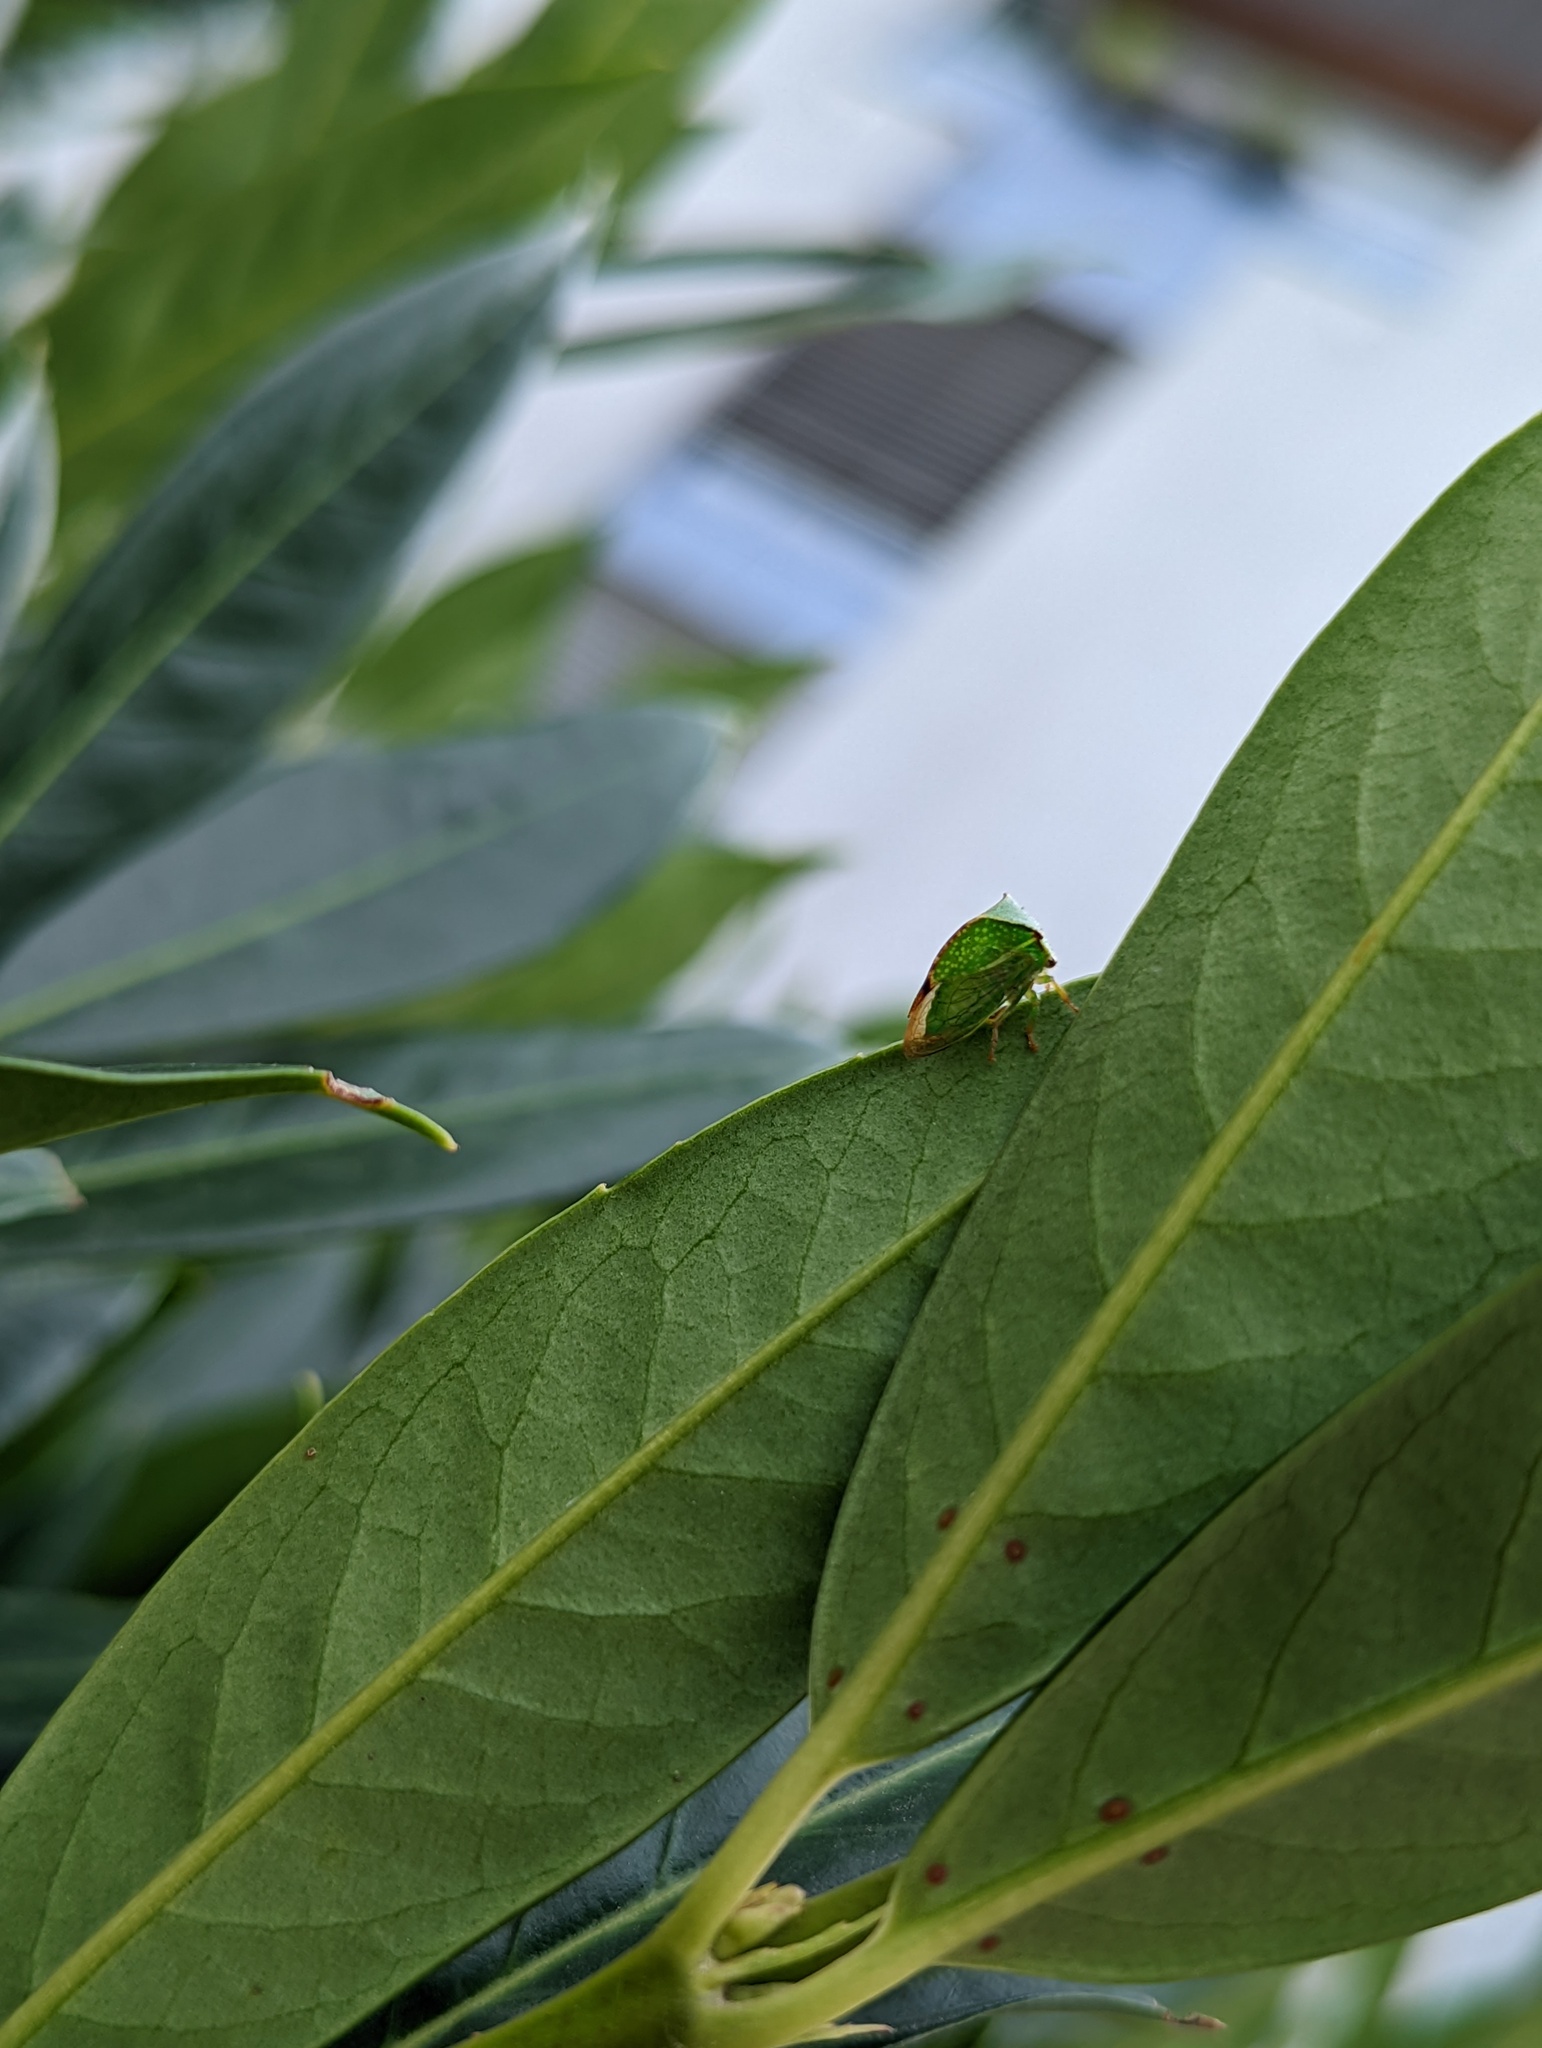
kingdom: Animalia
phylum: Arthropoda
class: Insecta
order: Hemiptera
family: Membracidae
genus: Stictocephala
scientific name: Stictocephala bisonia
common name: American buffalo treehopper
